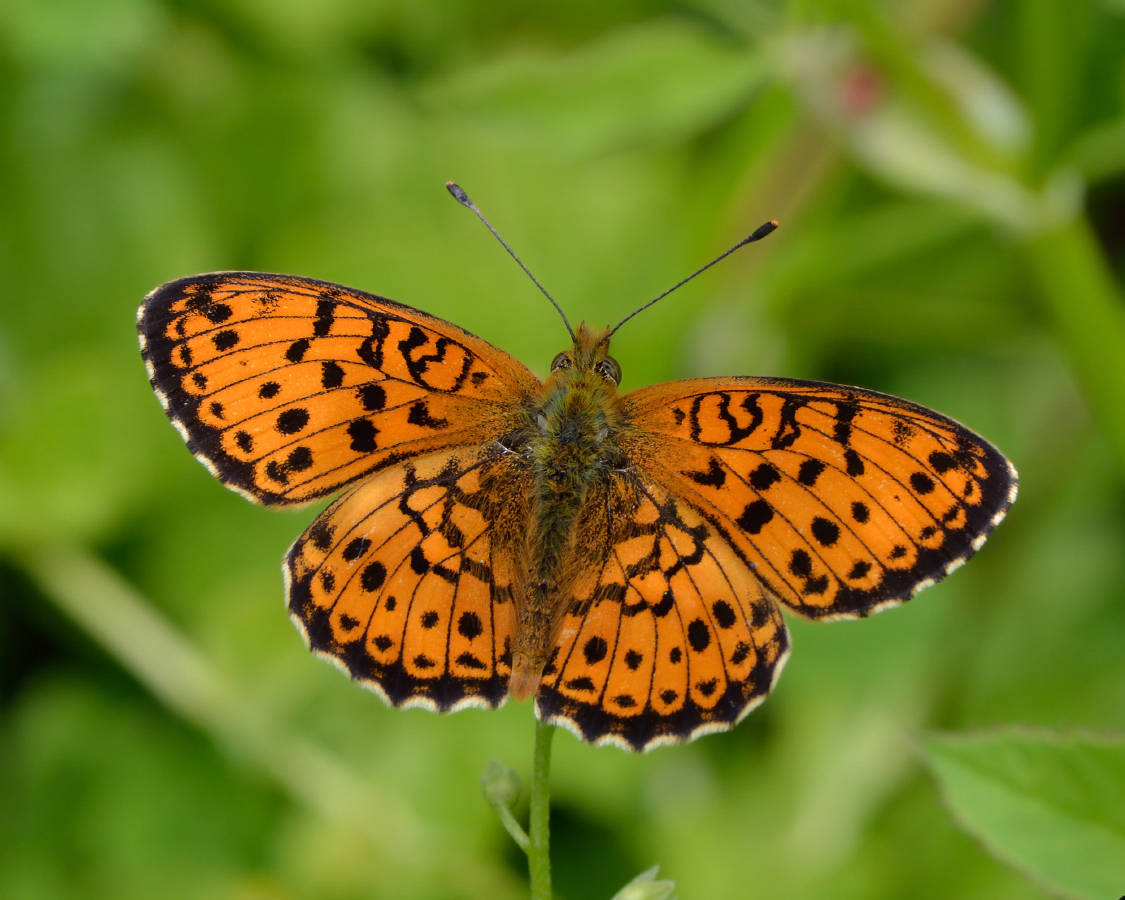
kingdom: Animalia
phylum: Arthropoda
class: Insecta
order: Lepidoptera
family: Nymphalidae
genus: Brenthis
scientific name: Brenthis ino
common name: Lesser marbled fritillary
